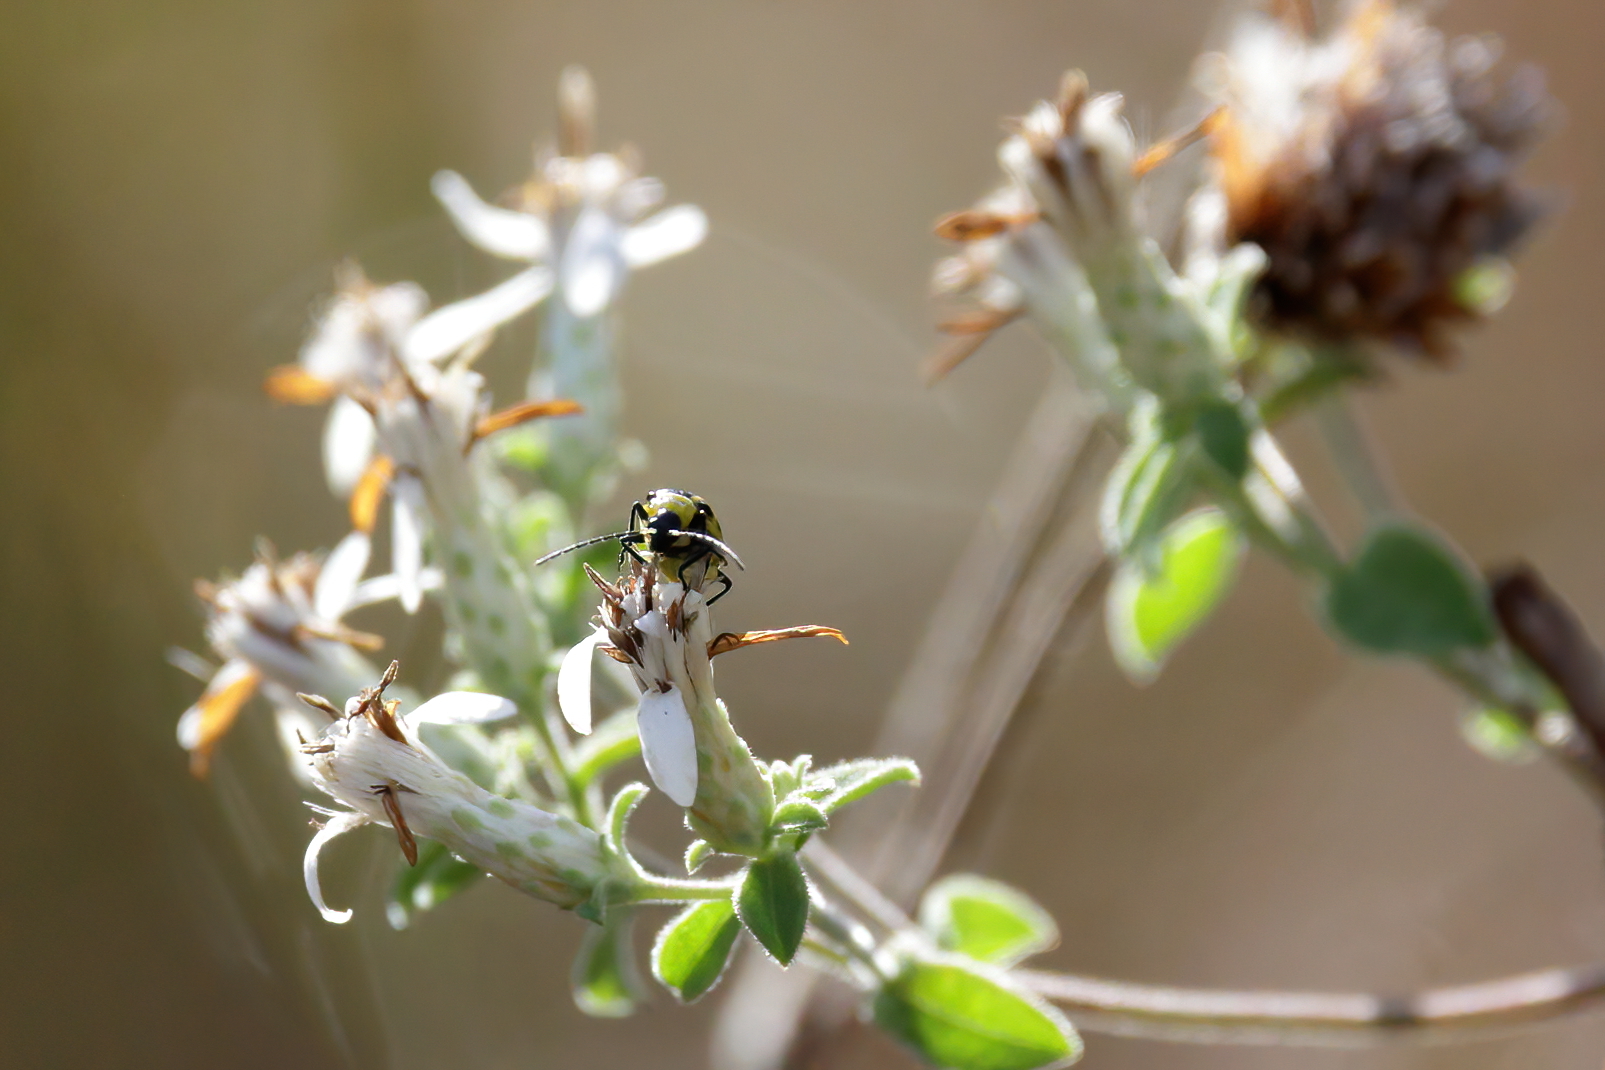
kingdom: Animalia
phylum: Arthropoda
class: Insecta
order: Coleoptera
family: Chrysomelidae
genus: Diabrotica
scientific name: Diabrotica undecimpunctata
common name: Spotted cucumber beetle
